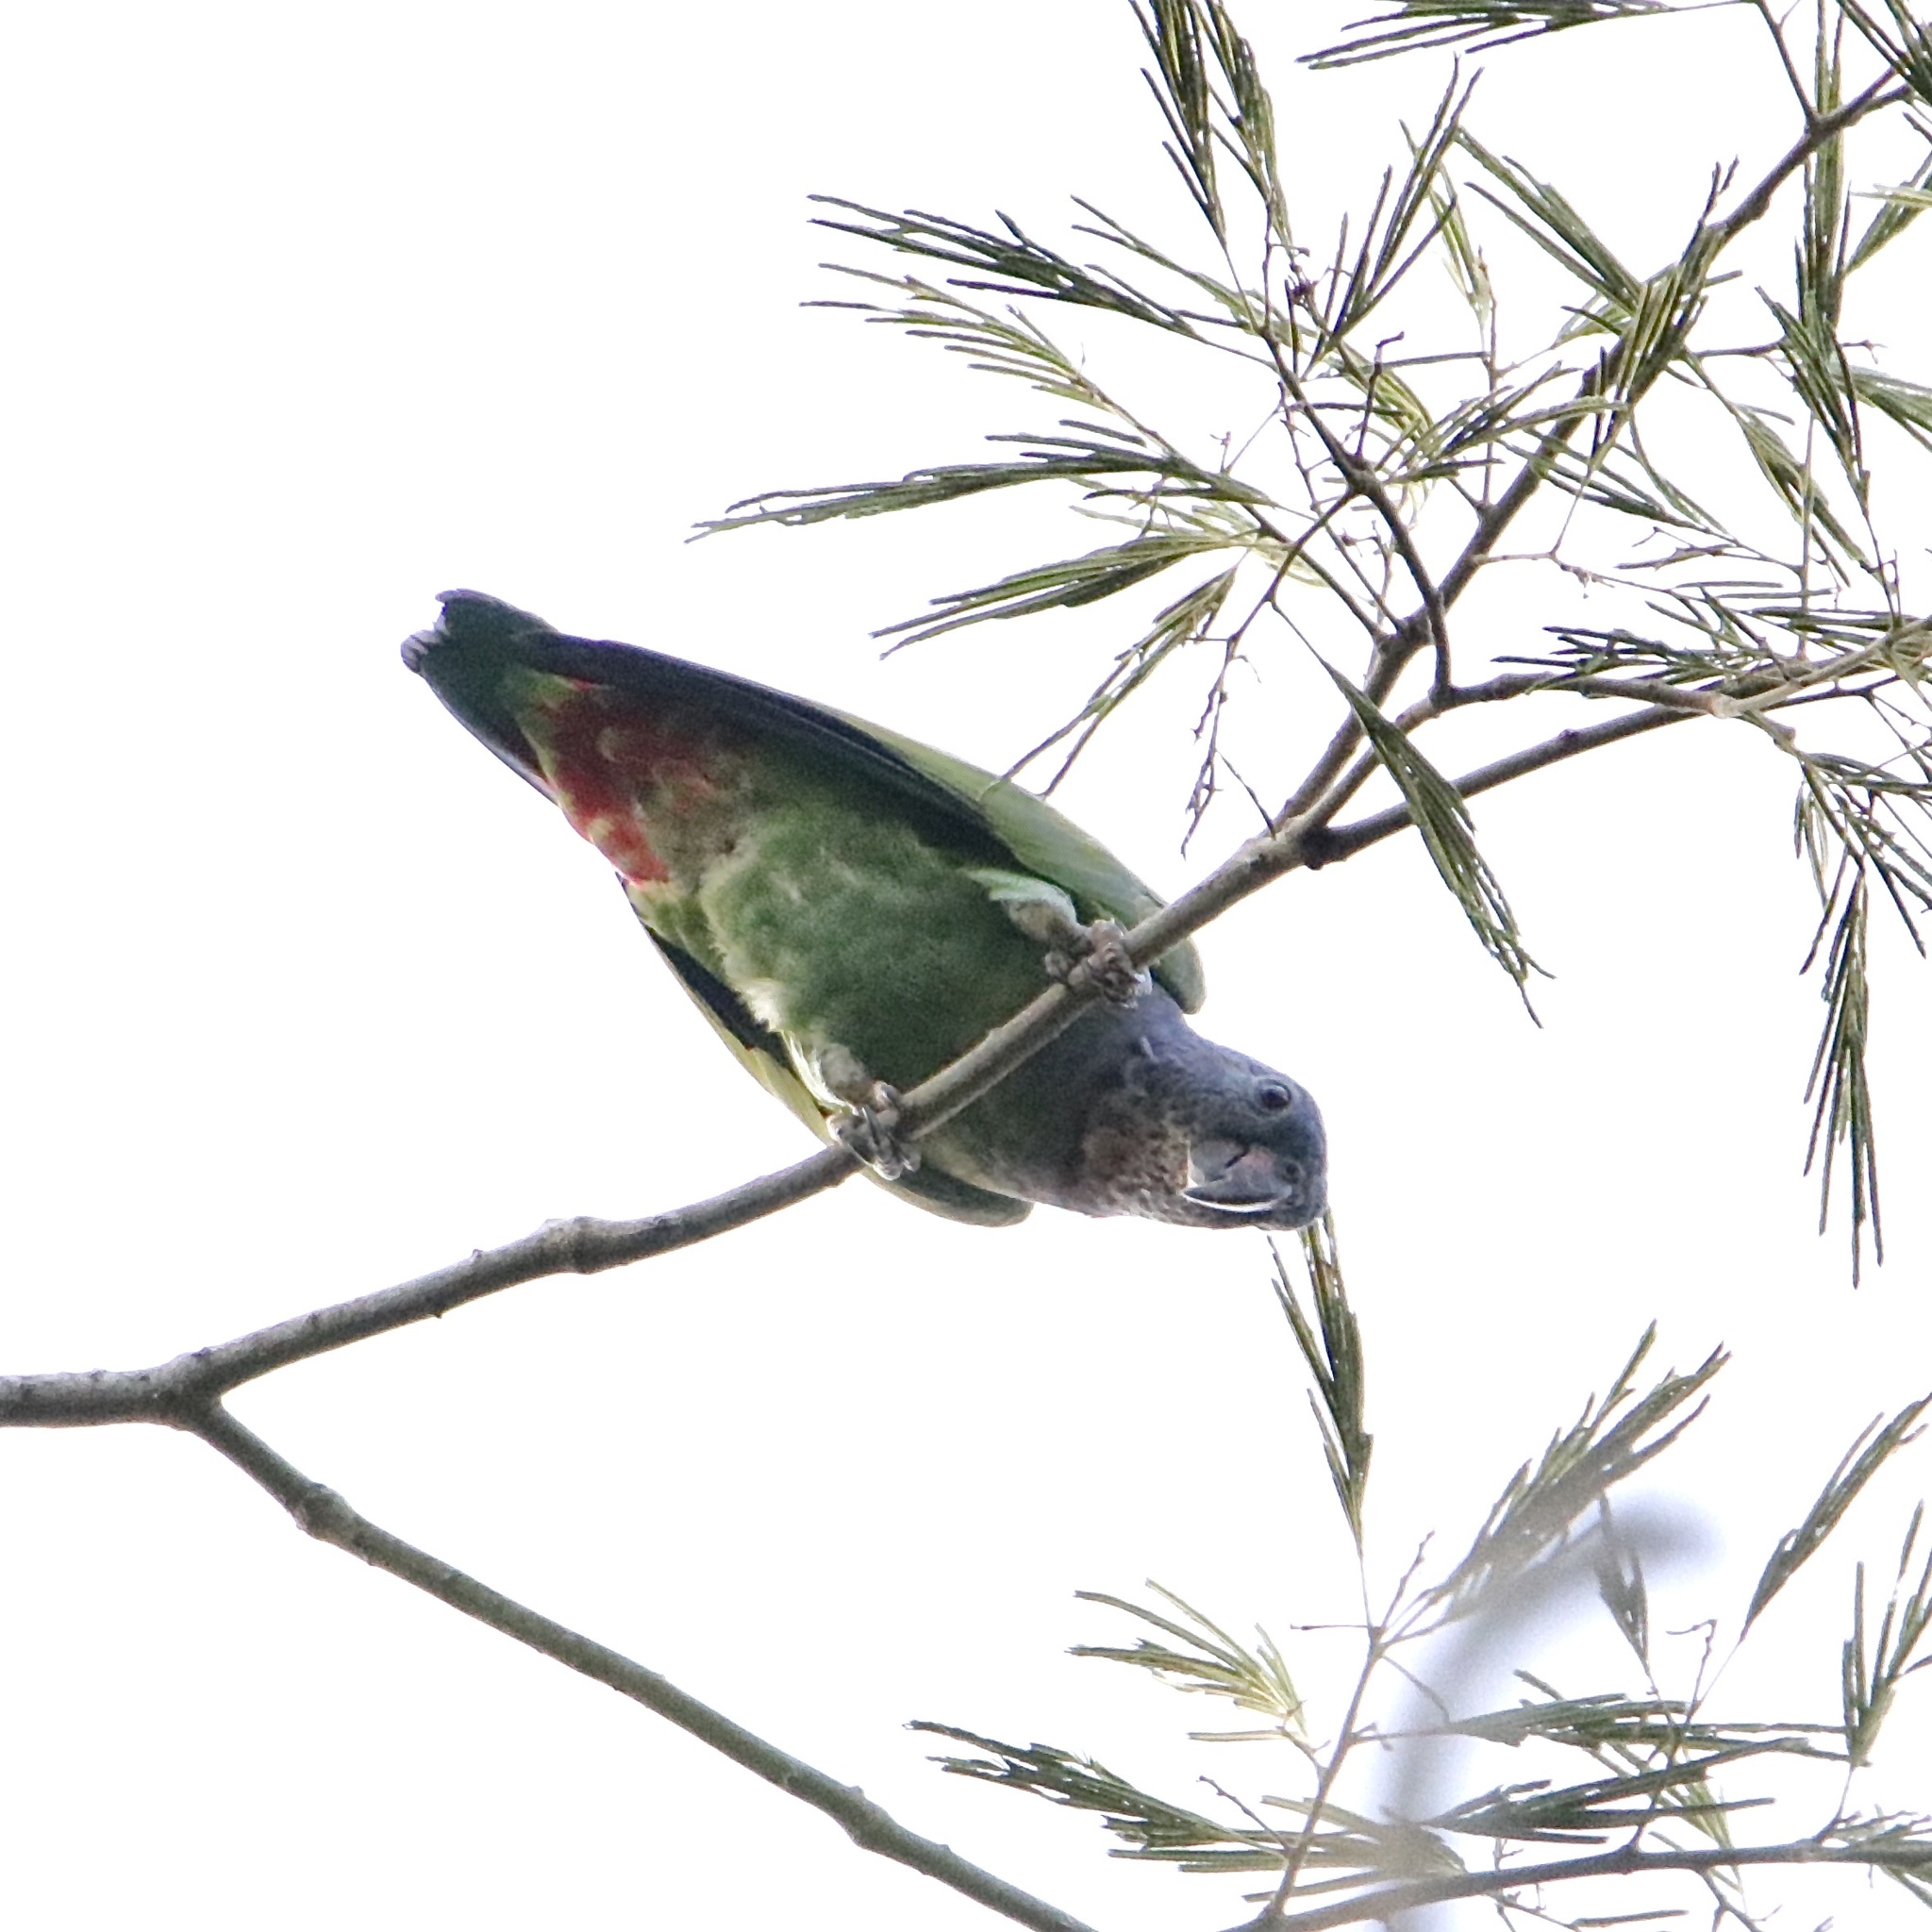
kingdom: Animalia
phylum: Chordata
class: Aves
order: Psittaciformes
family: Psittacidae
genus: Pionus
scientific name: Pionus menstruus
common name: Blue-headed parrot
